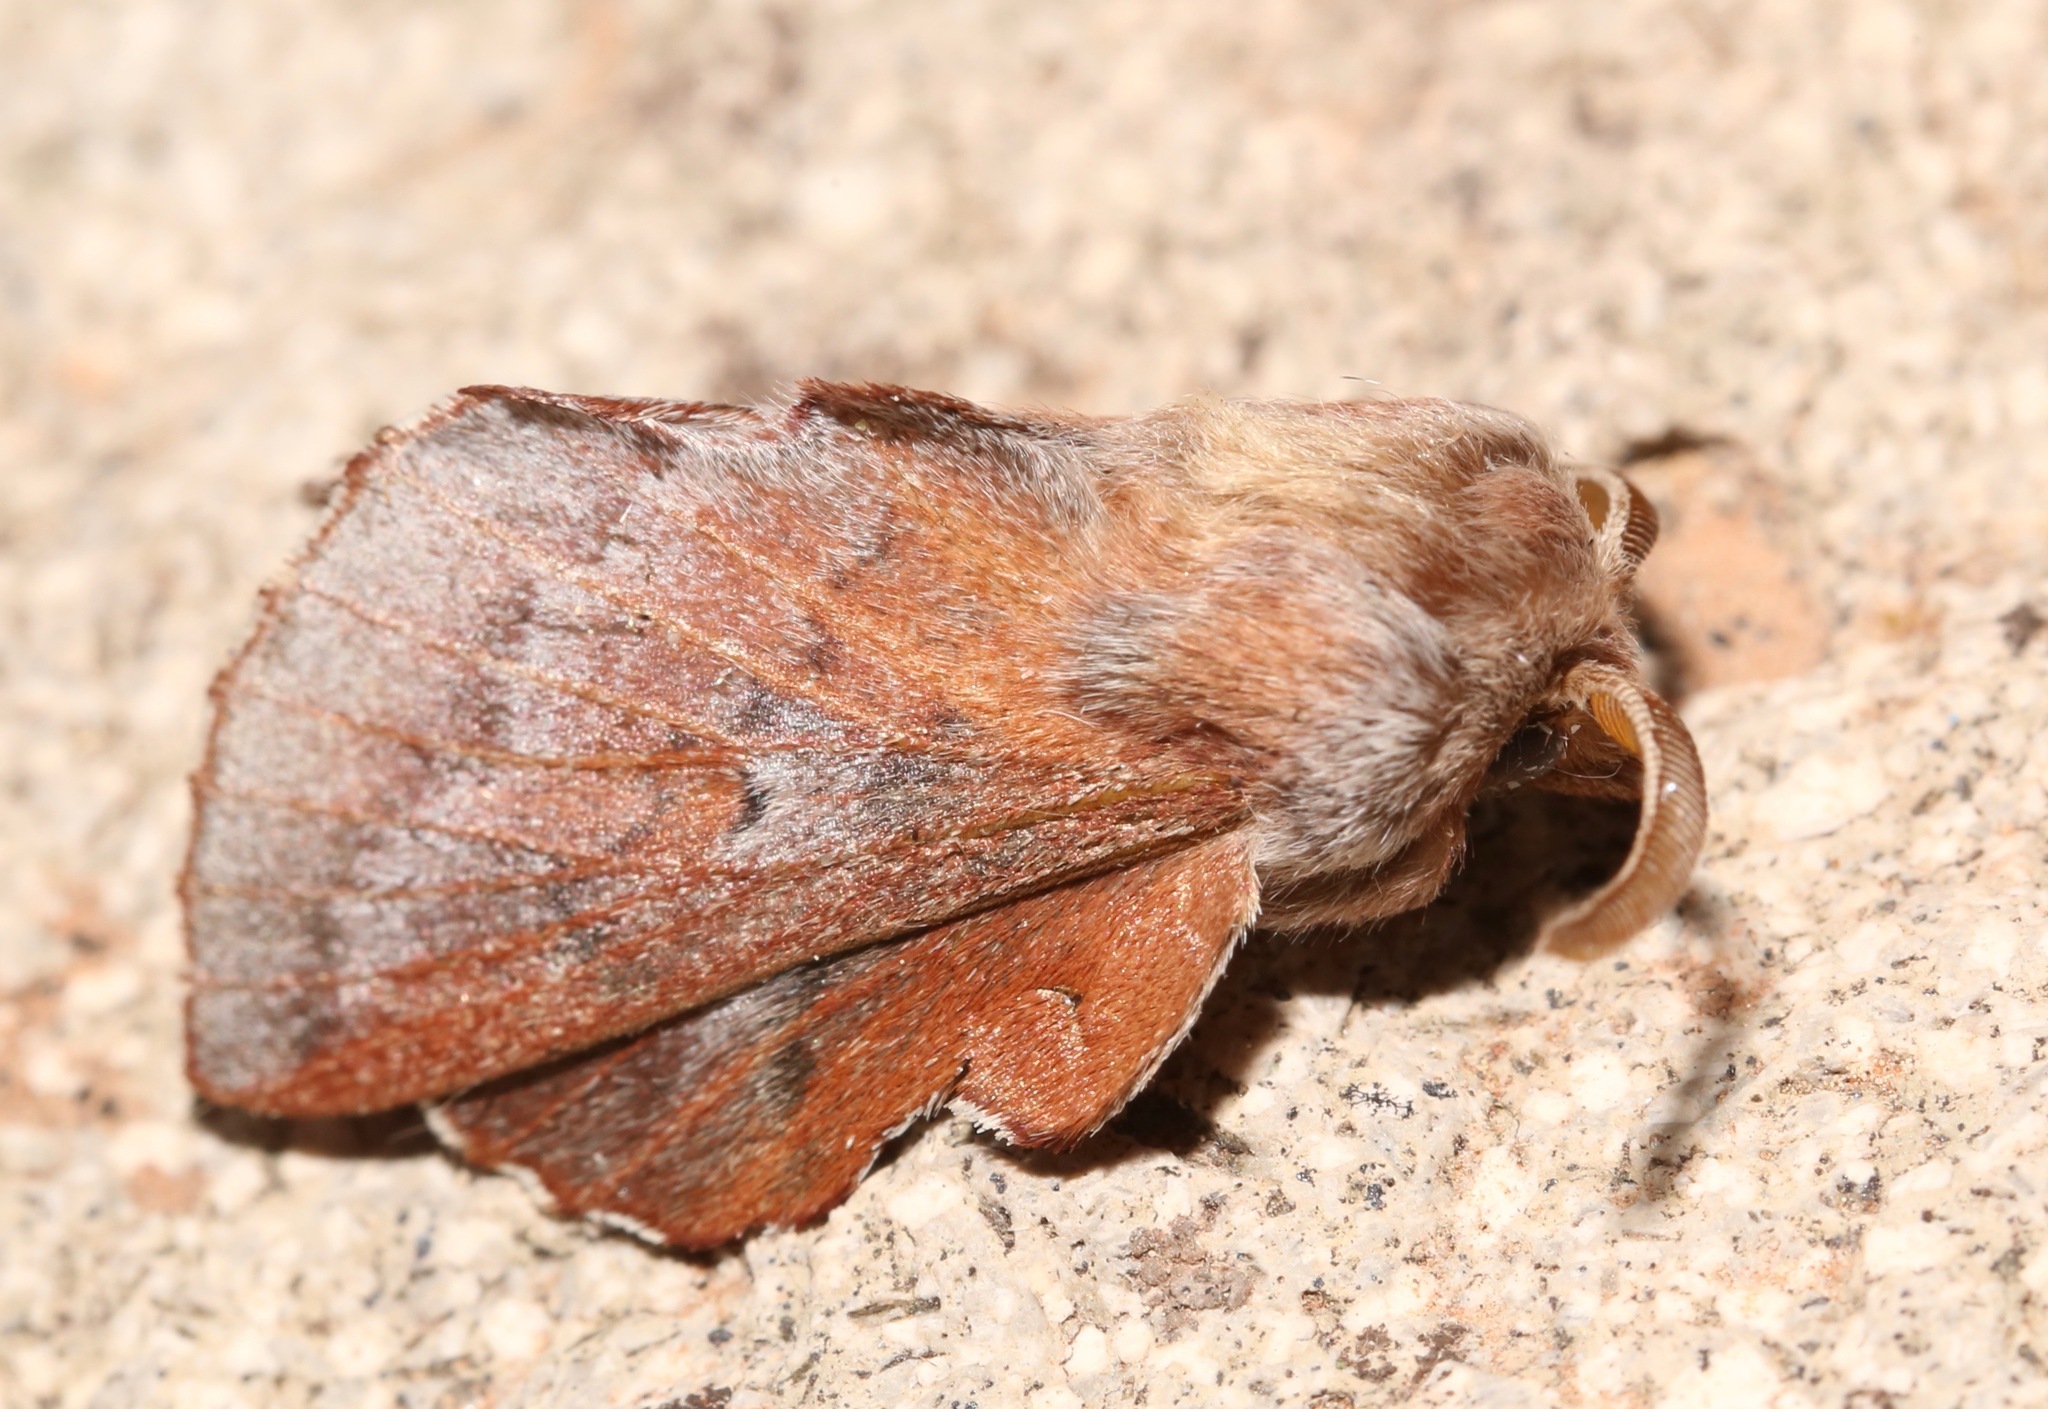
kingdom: Animalia
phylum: Arthropoda
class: Insecta
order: Lepidoptera
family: Lasiocampidae
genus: Phyllodesma
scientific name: Phyllodesma americana
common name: American lappet moth
